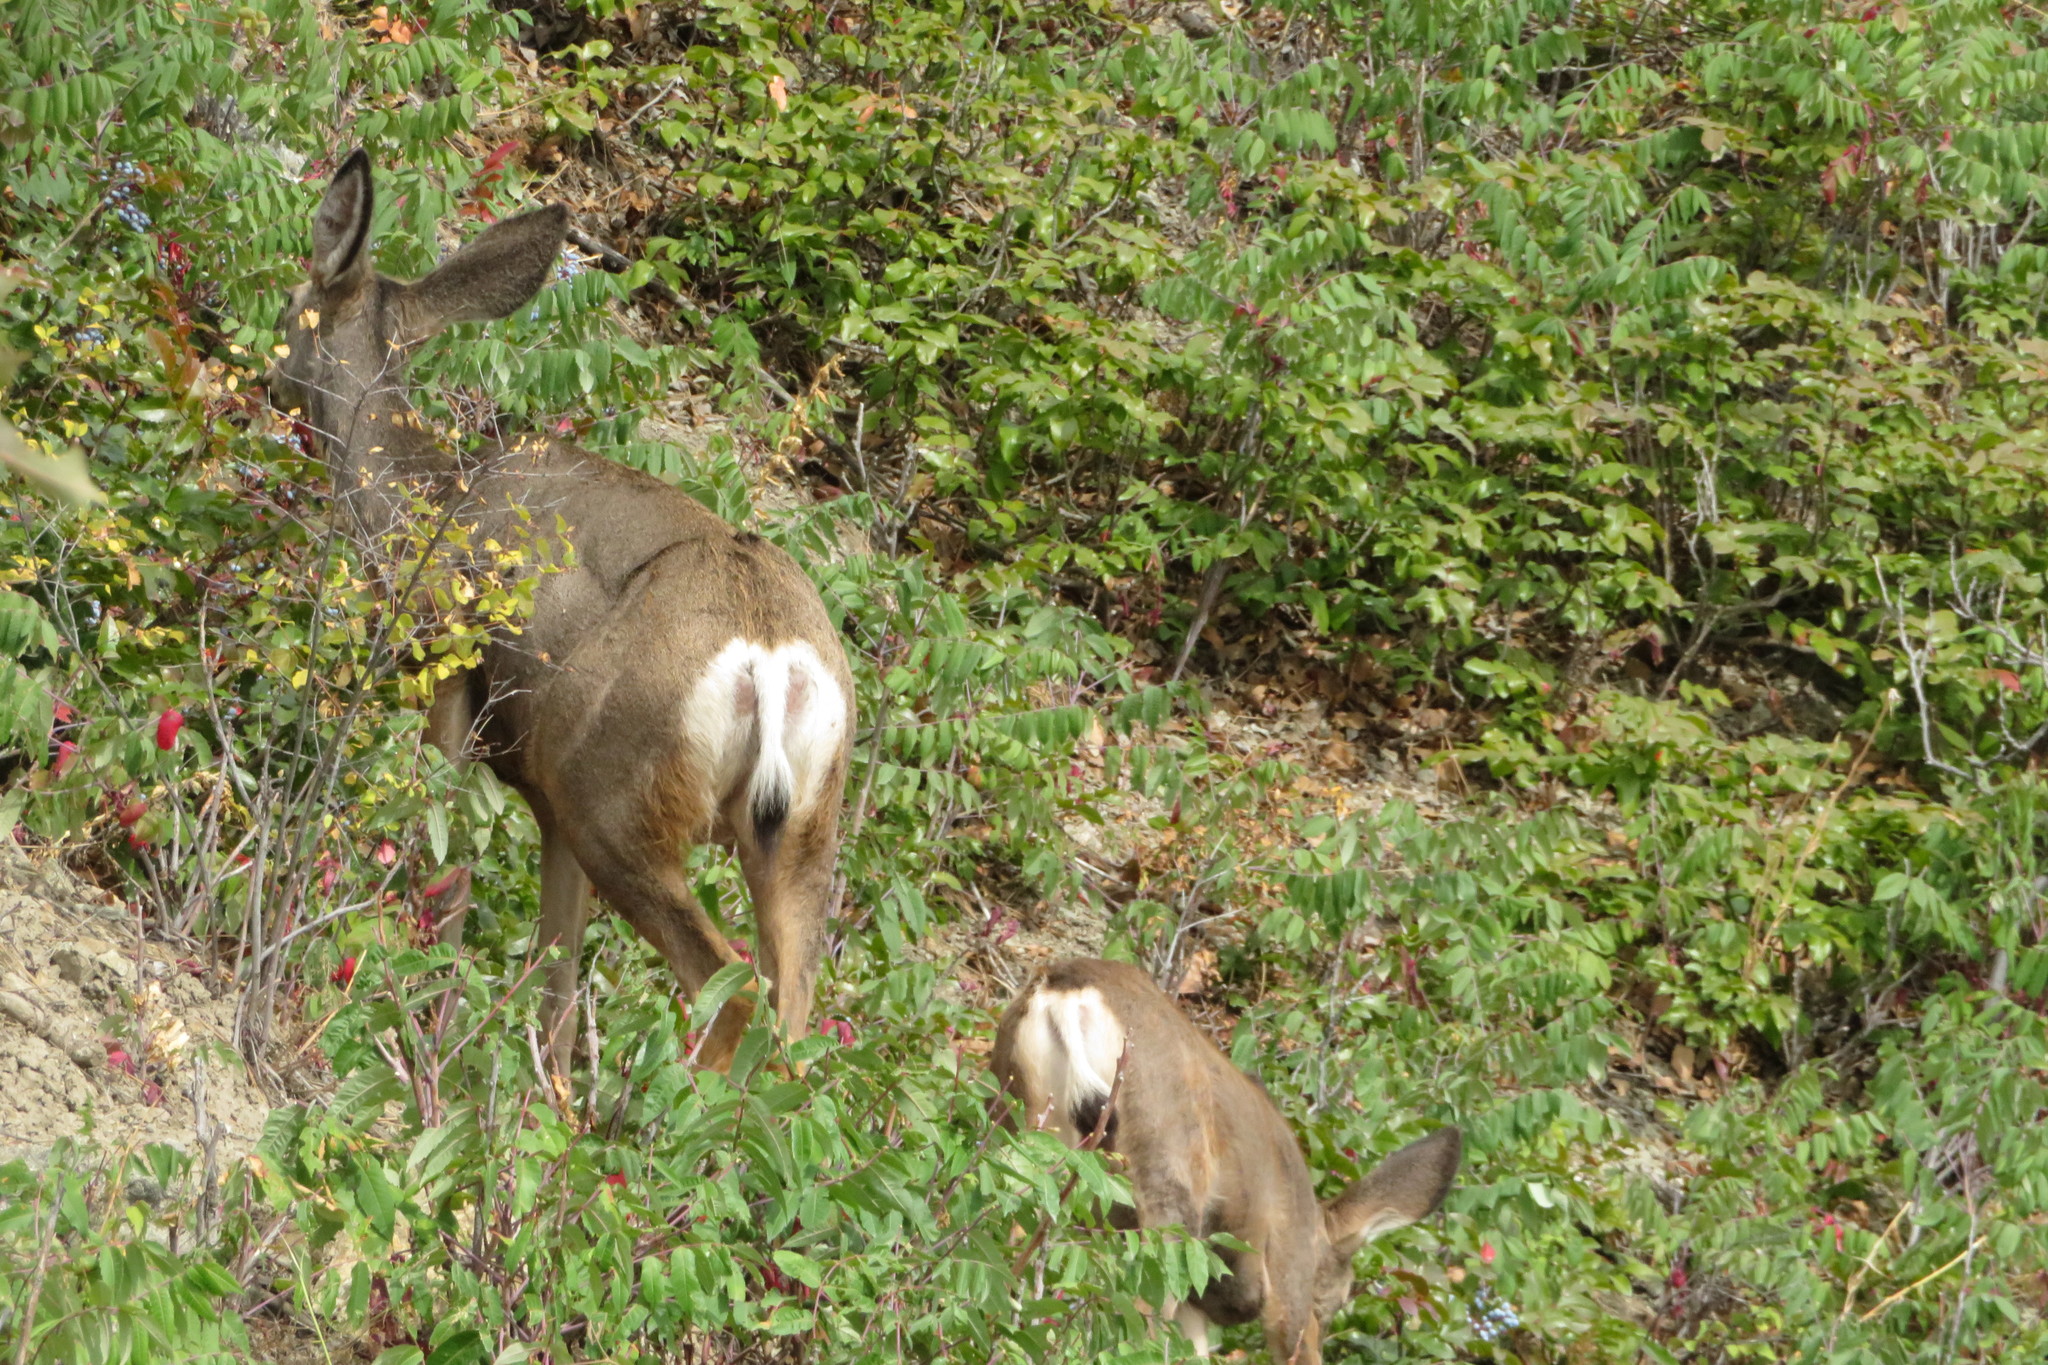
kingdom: Animalia
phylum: Chordata
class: Mammalia
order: Artiodactyla
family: Cervidae
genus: Odocoileus
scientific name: Odocoileus hemionus
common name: Mule deer
